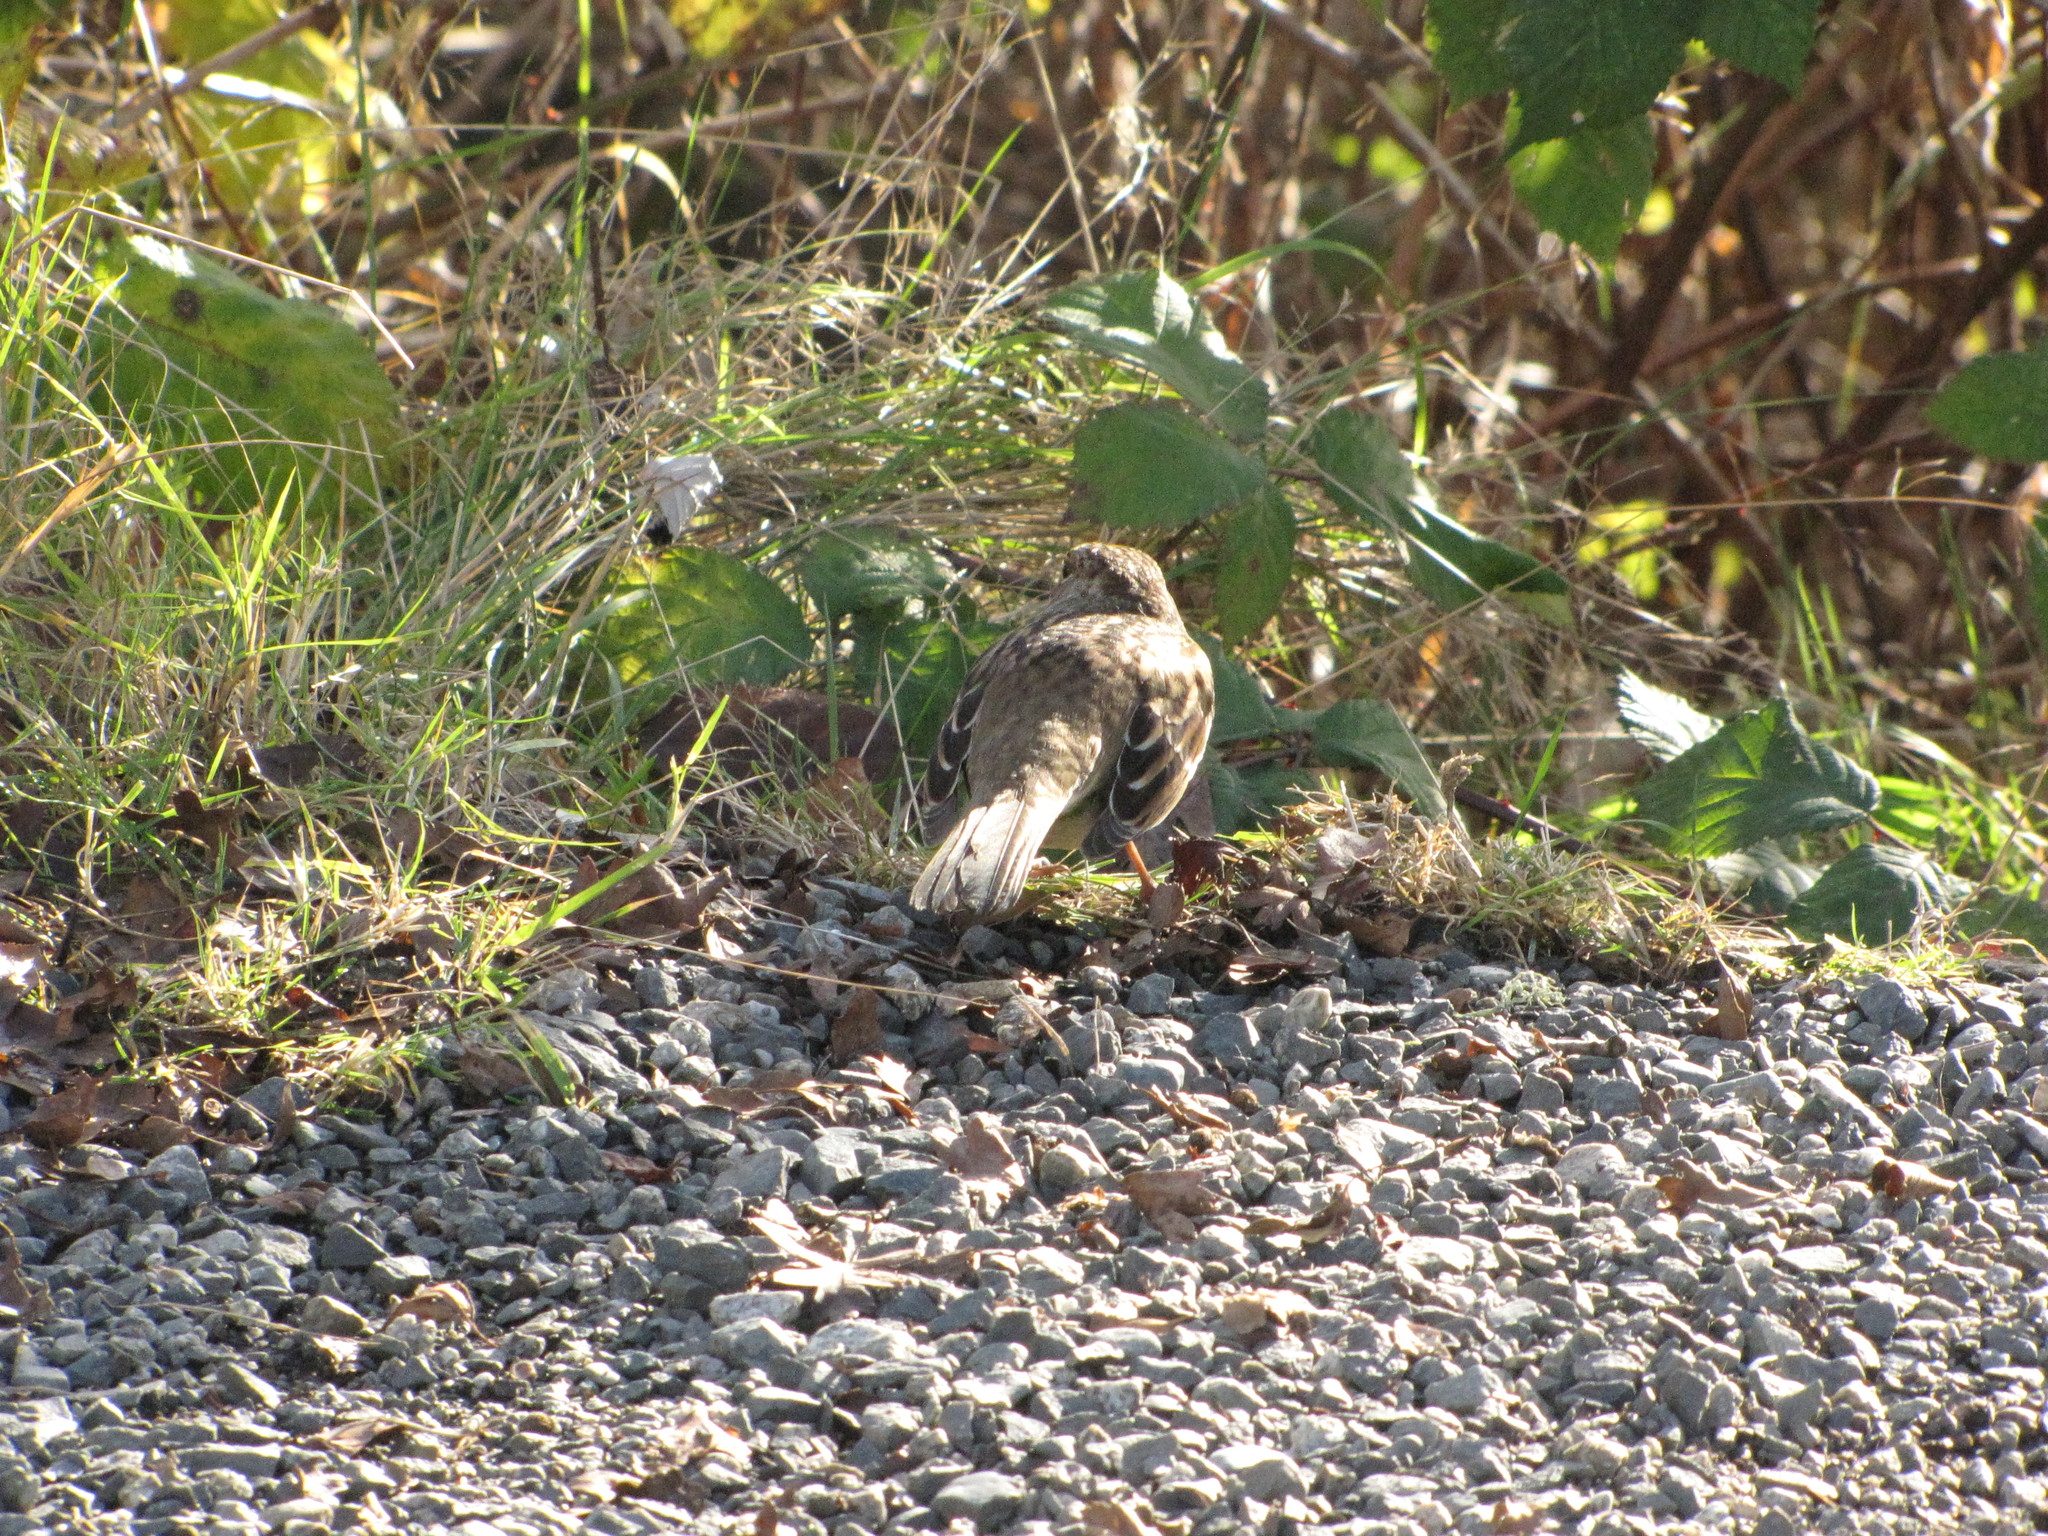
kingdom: Animalia
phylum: Chordata
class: Aves
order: Passeriformes
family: Passerellidae
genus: Zonotrichia
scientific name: Zonotrichia atricapilla
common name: Golden-crowned sparrow
